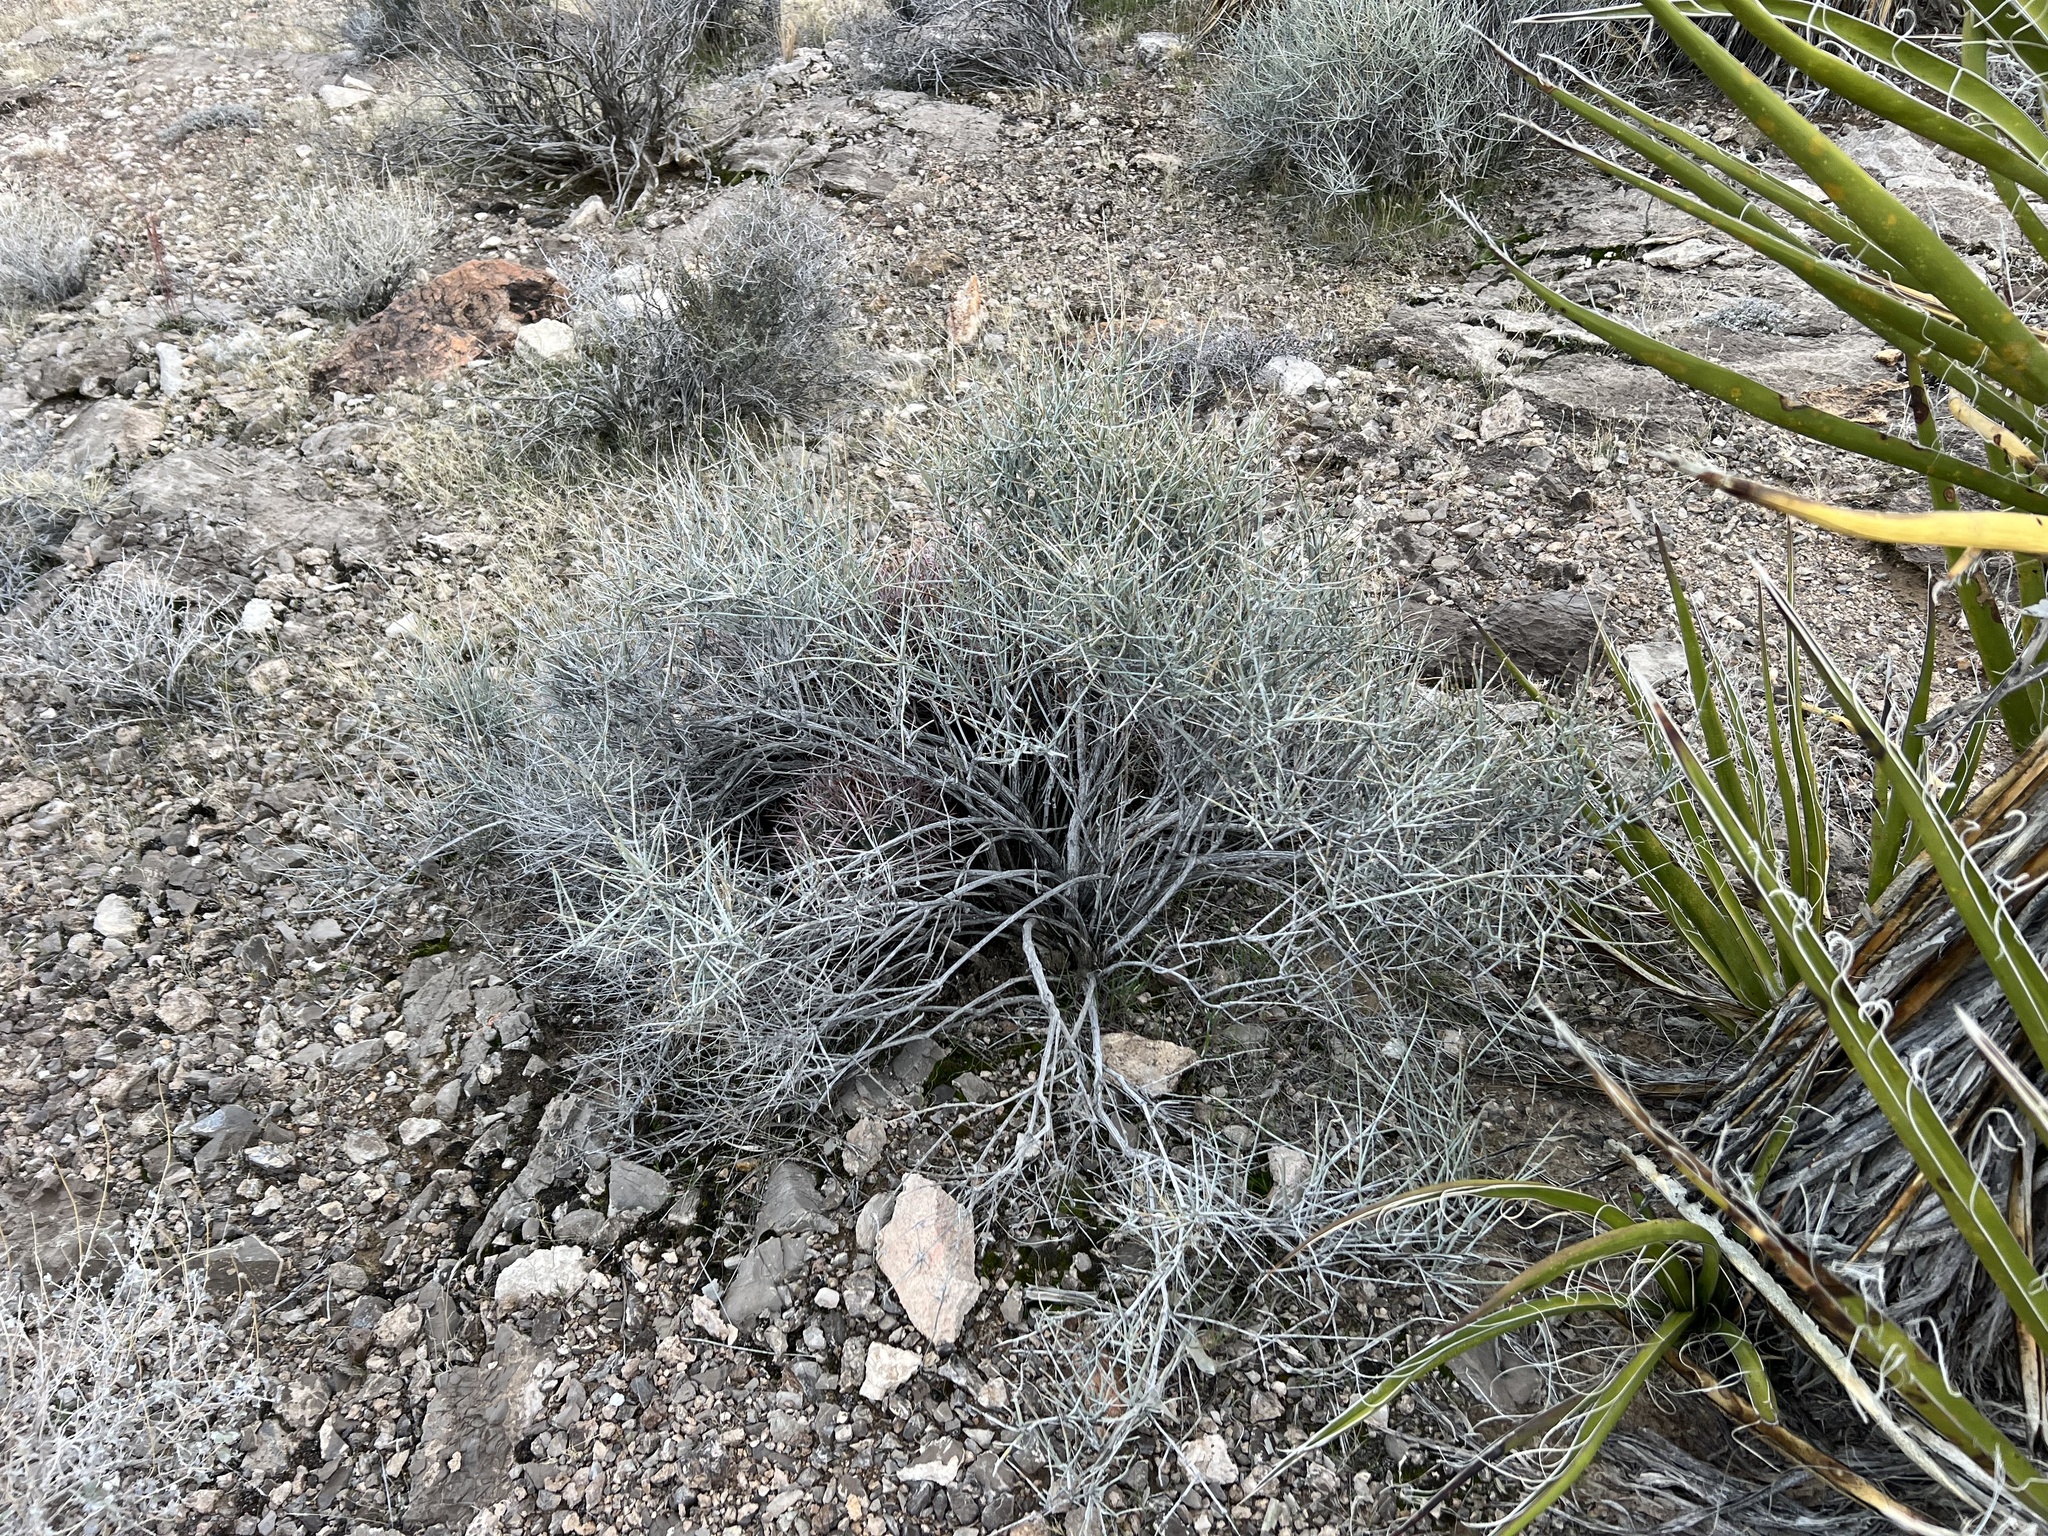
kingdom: Plantae
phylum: Tracheophyta
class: Gnetopsida
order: Ephedrales
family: Ephedraceae
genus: Ephedra
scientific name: Ephedra nevadensis
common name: Gray ephedra
